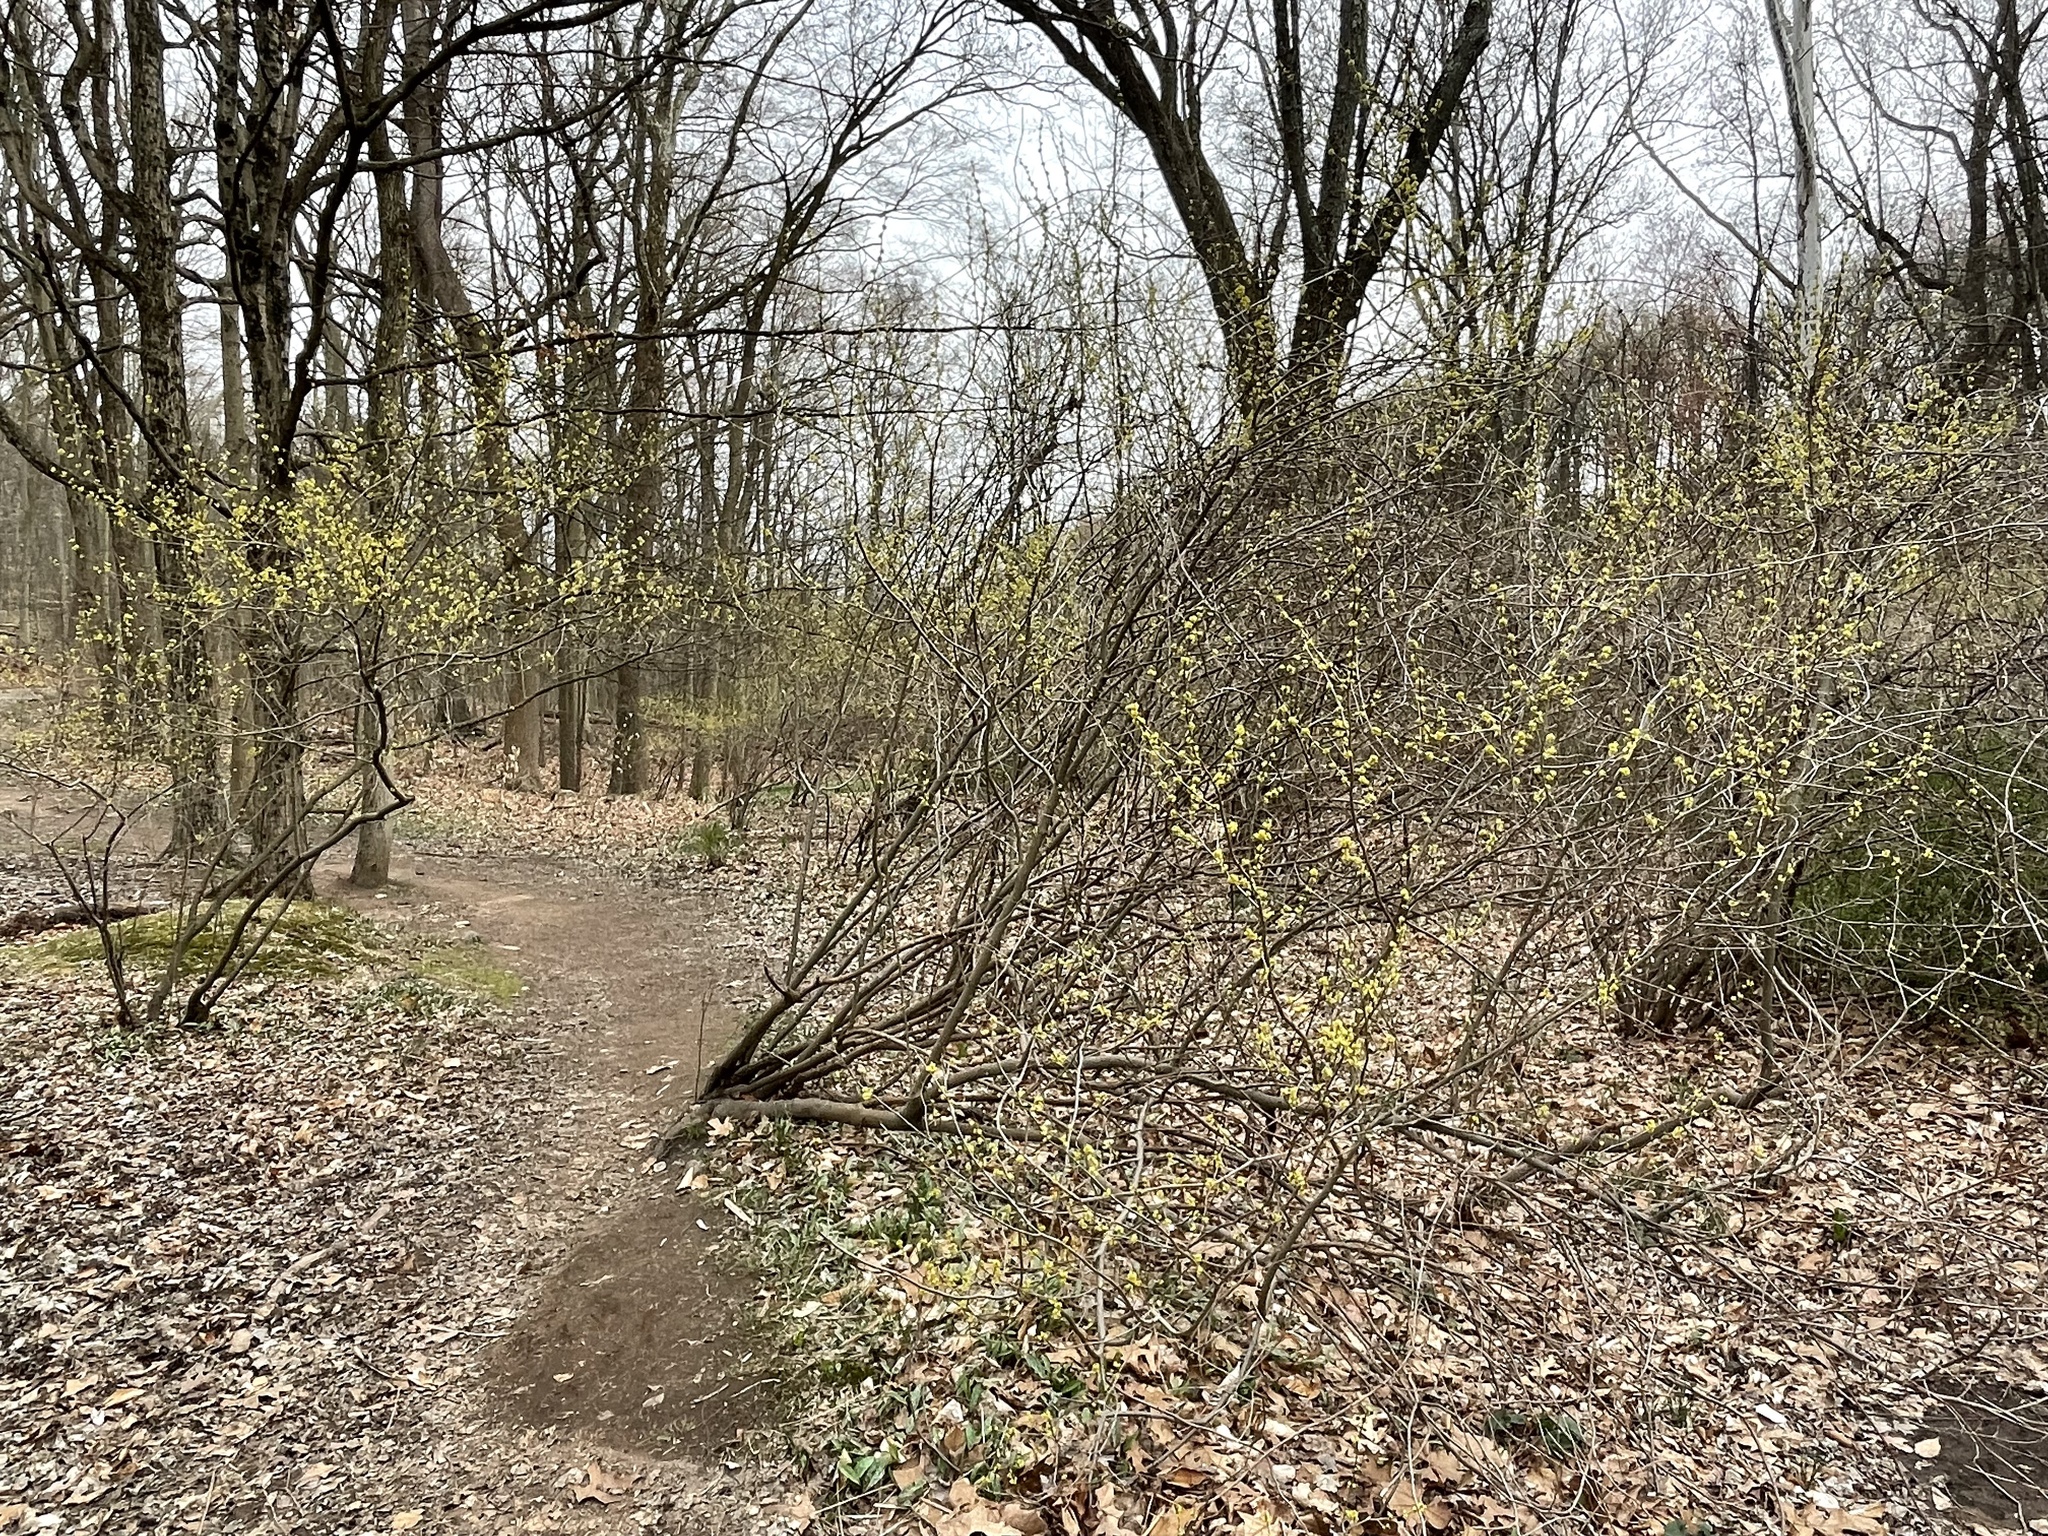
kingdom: Plantae
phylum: Tracheophyta
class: Magnoliopsida
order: Laurales
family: Lauraceae
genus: Lindera
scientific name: Lindera benzoin
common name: Spicebush
